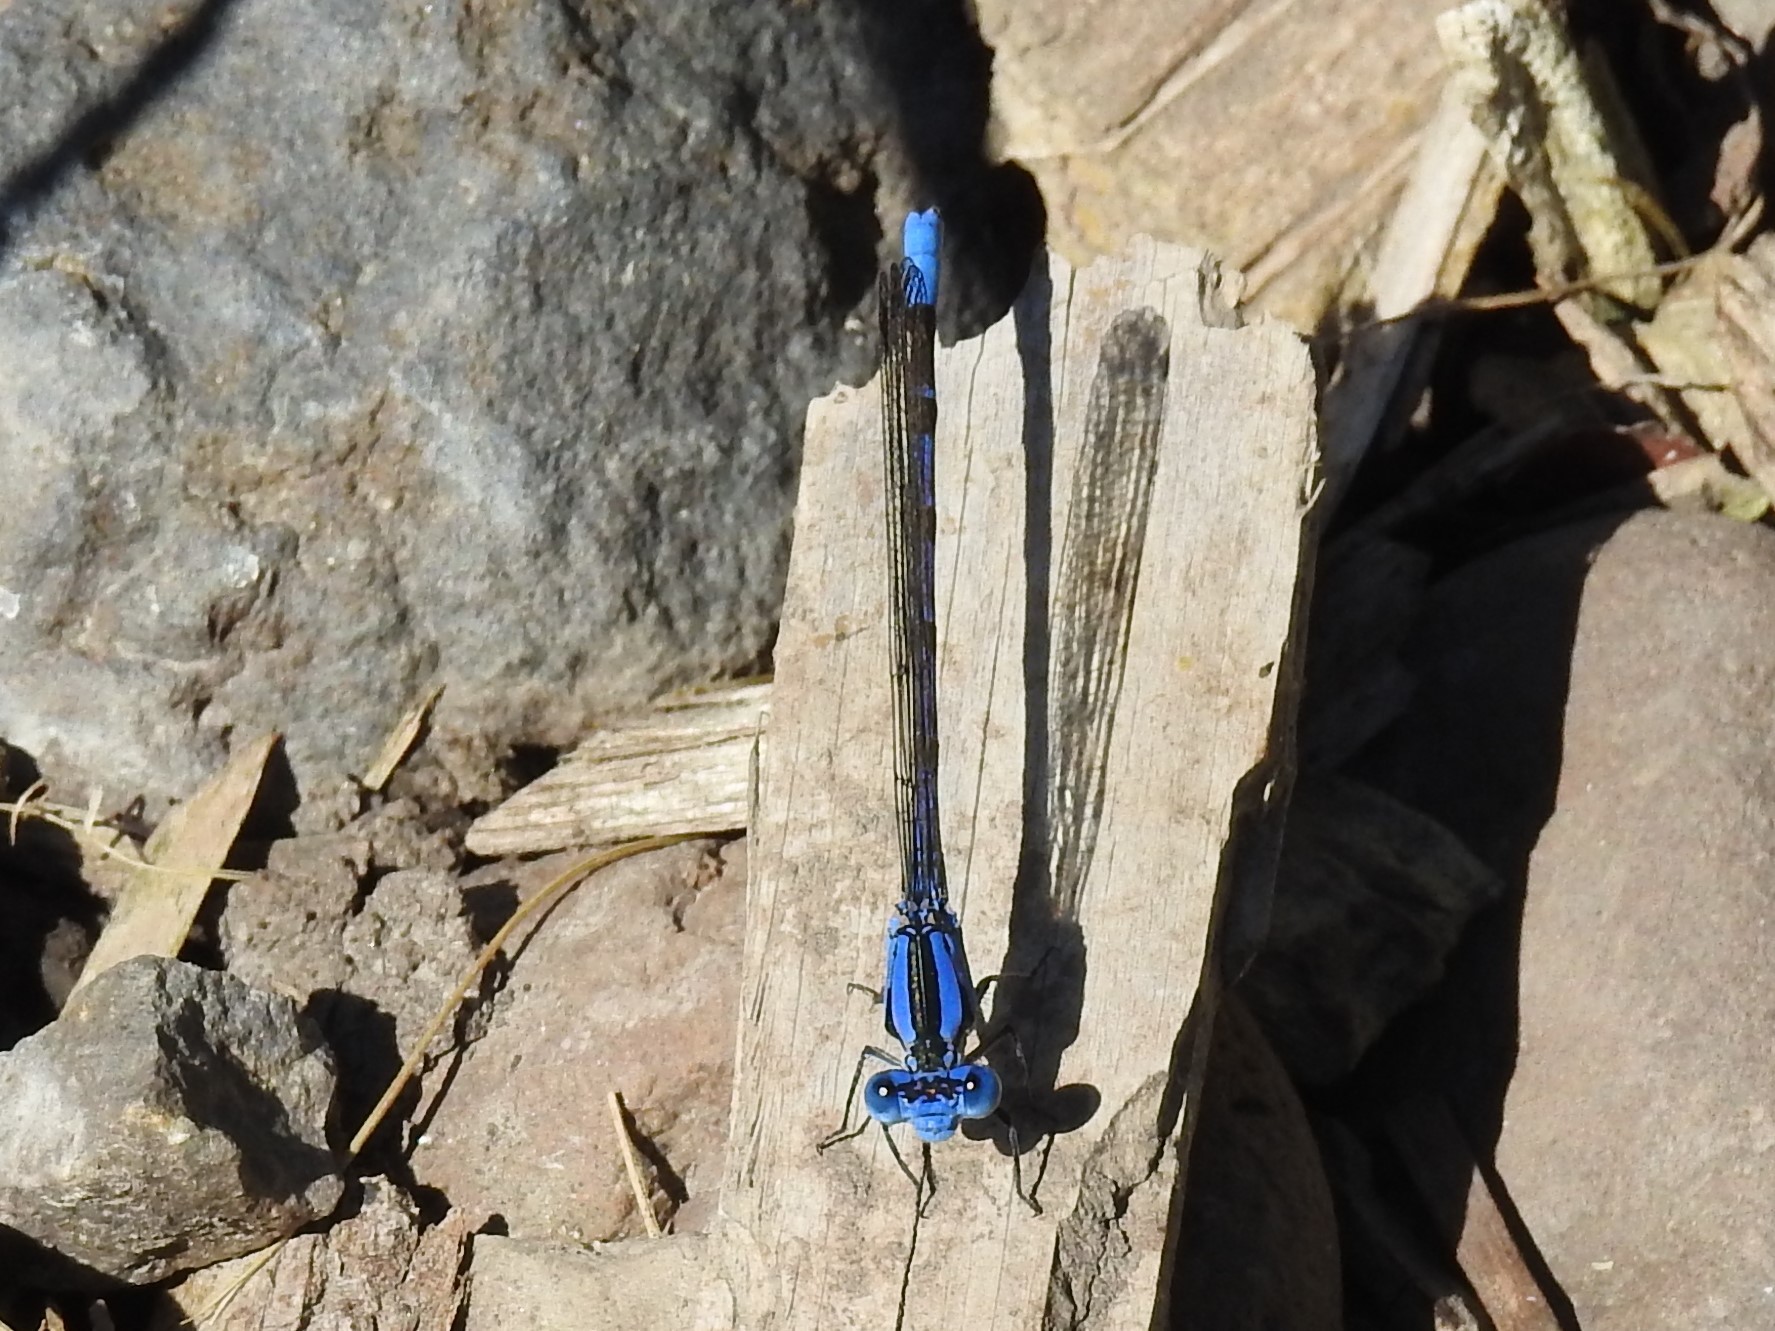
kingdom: Animalia
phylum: Arthropoda
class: Insecta
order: Odonata
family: Coenagrionidae
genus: Argia
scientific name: Argia vivida
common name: Vivid dancer
